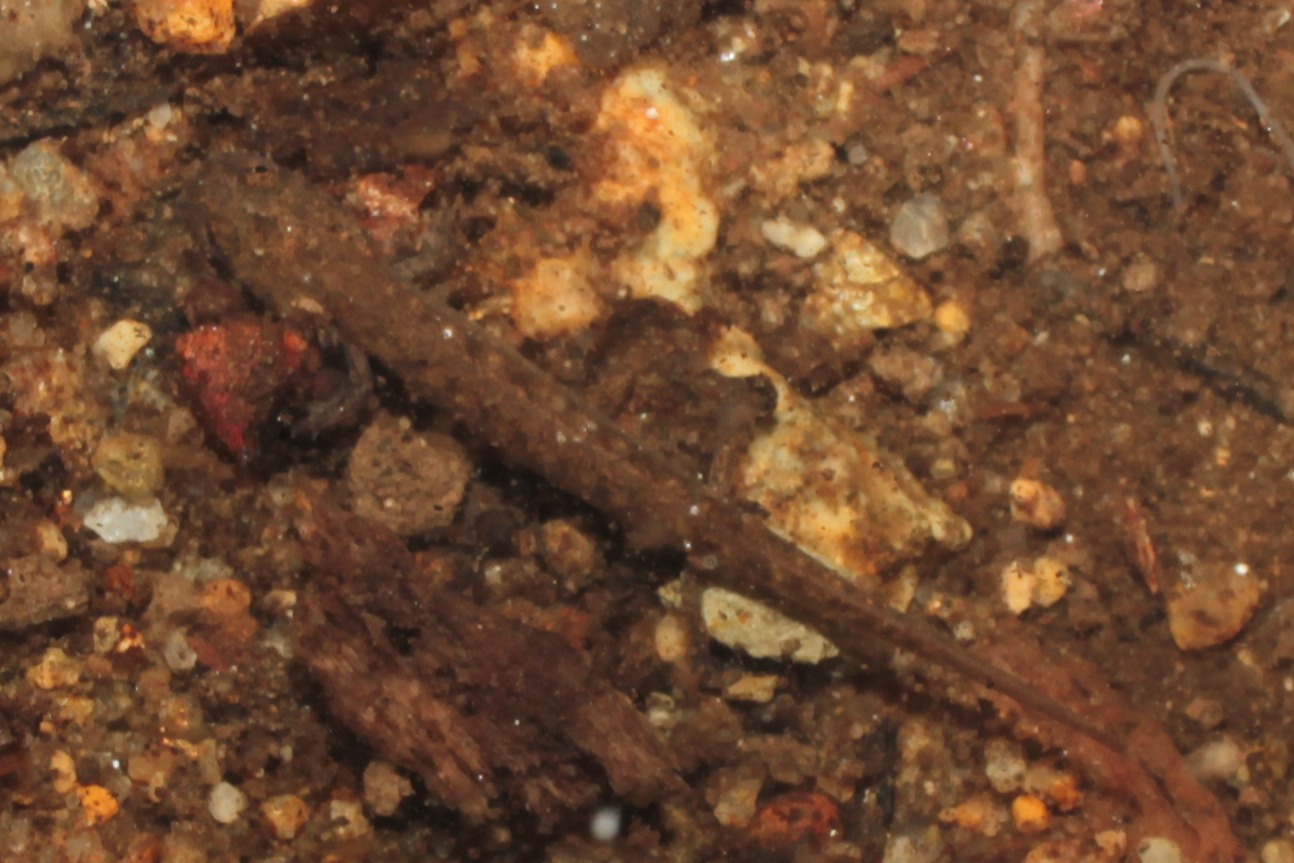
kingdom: Animalia
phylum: Chordata
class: Amphibia
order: Caudata
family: Plethodontidae
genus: Eurycea
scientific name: Eurycea bislineata
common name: Northern two-lined salamander
